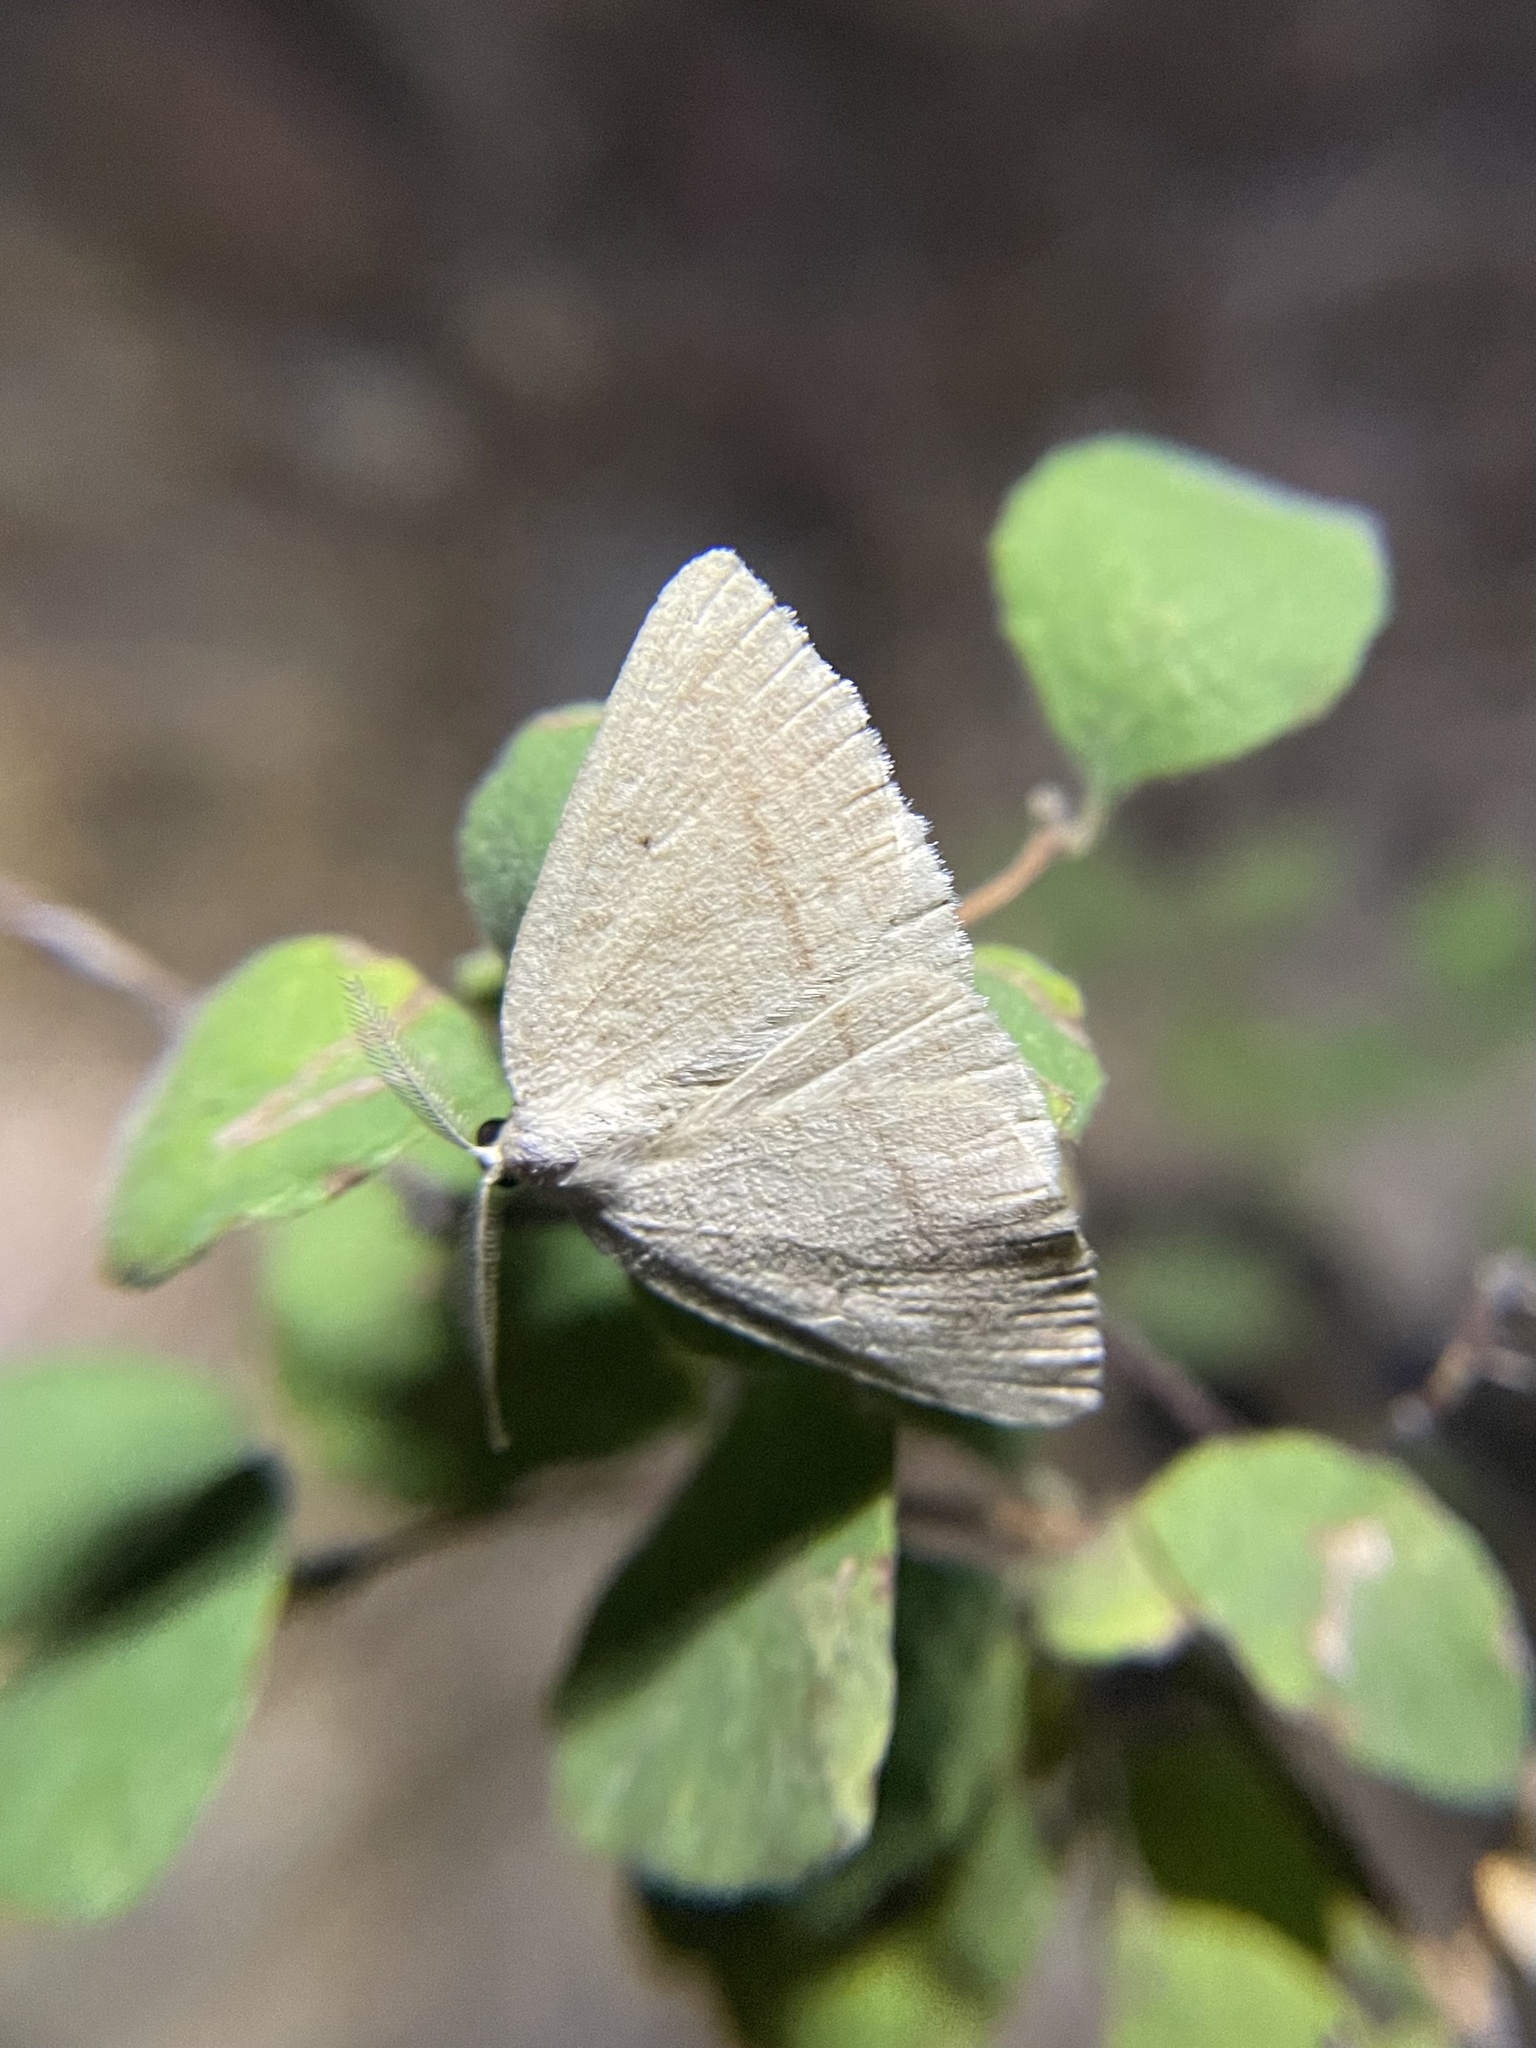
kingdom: Animalia
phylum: Arthropoda
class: Insecta
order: Lepidoptera
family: Geometridae
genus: Eudrepanulatrix
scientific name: Eudrepanulatrix rectifascia
